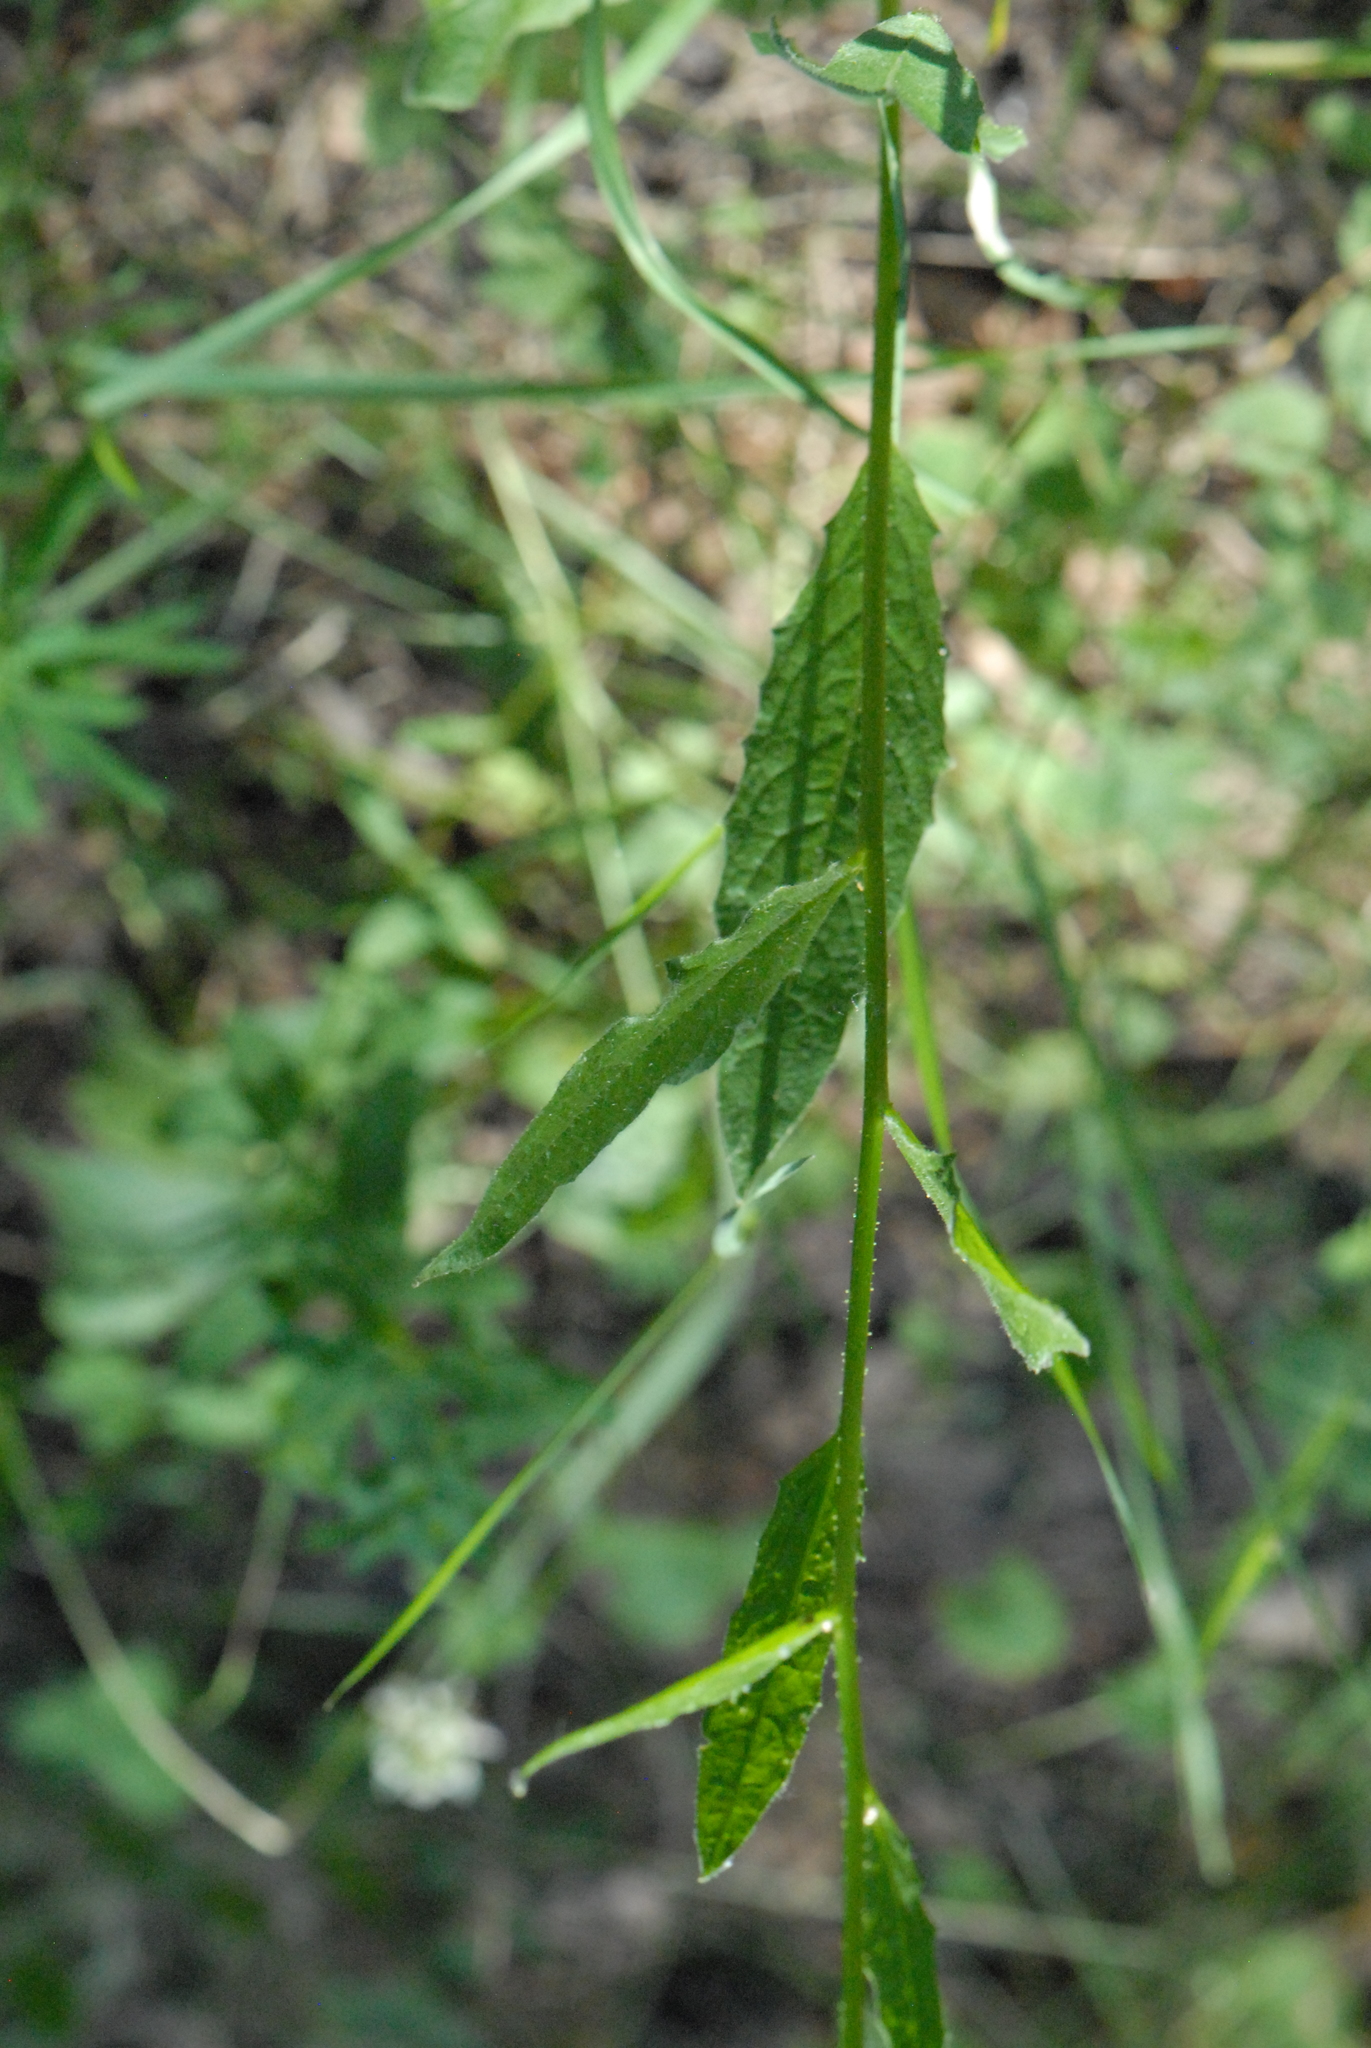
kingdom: Plantae
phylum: Tracheophyta
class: Magnoliopsida
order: Brassicales
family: Brassicaceae
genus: Bunias
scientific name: Bunias orientalis
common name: Warty-cabbage
